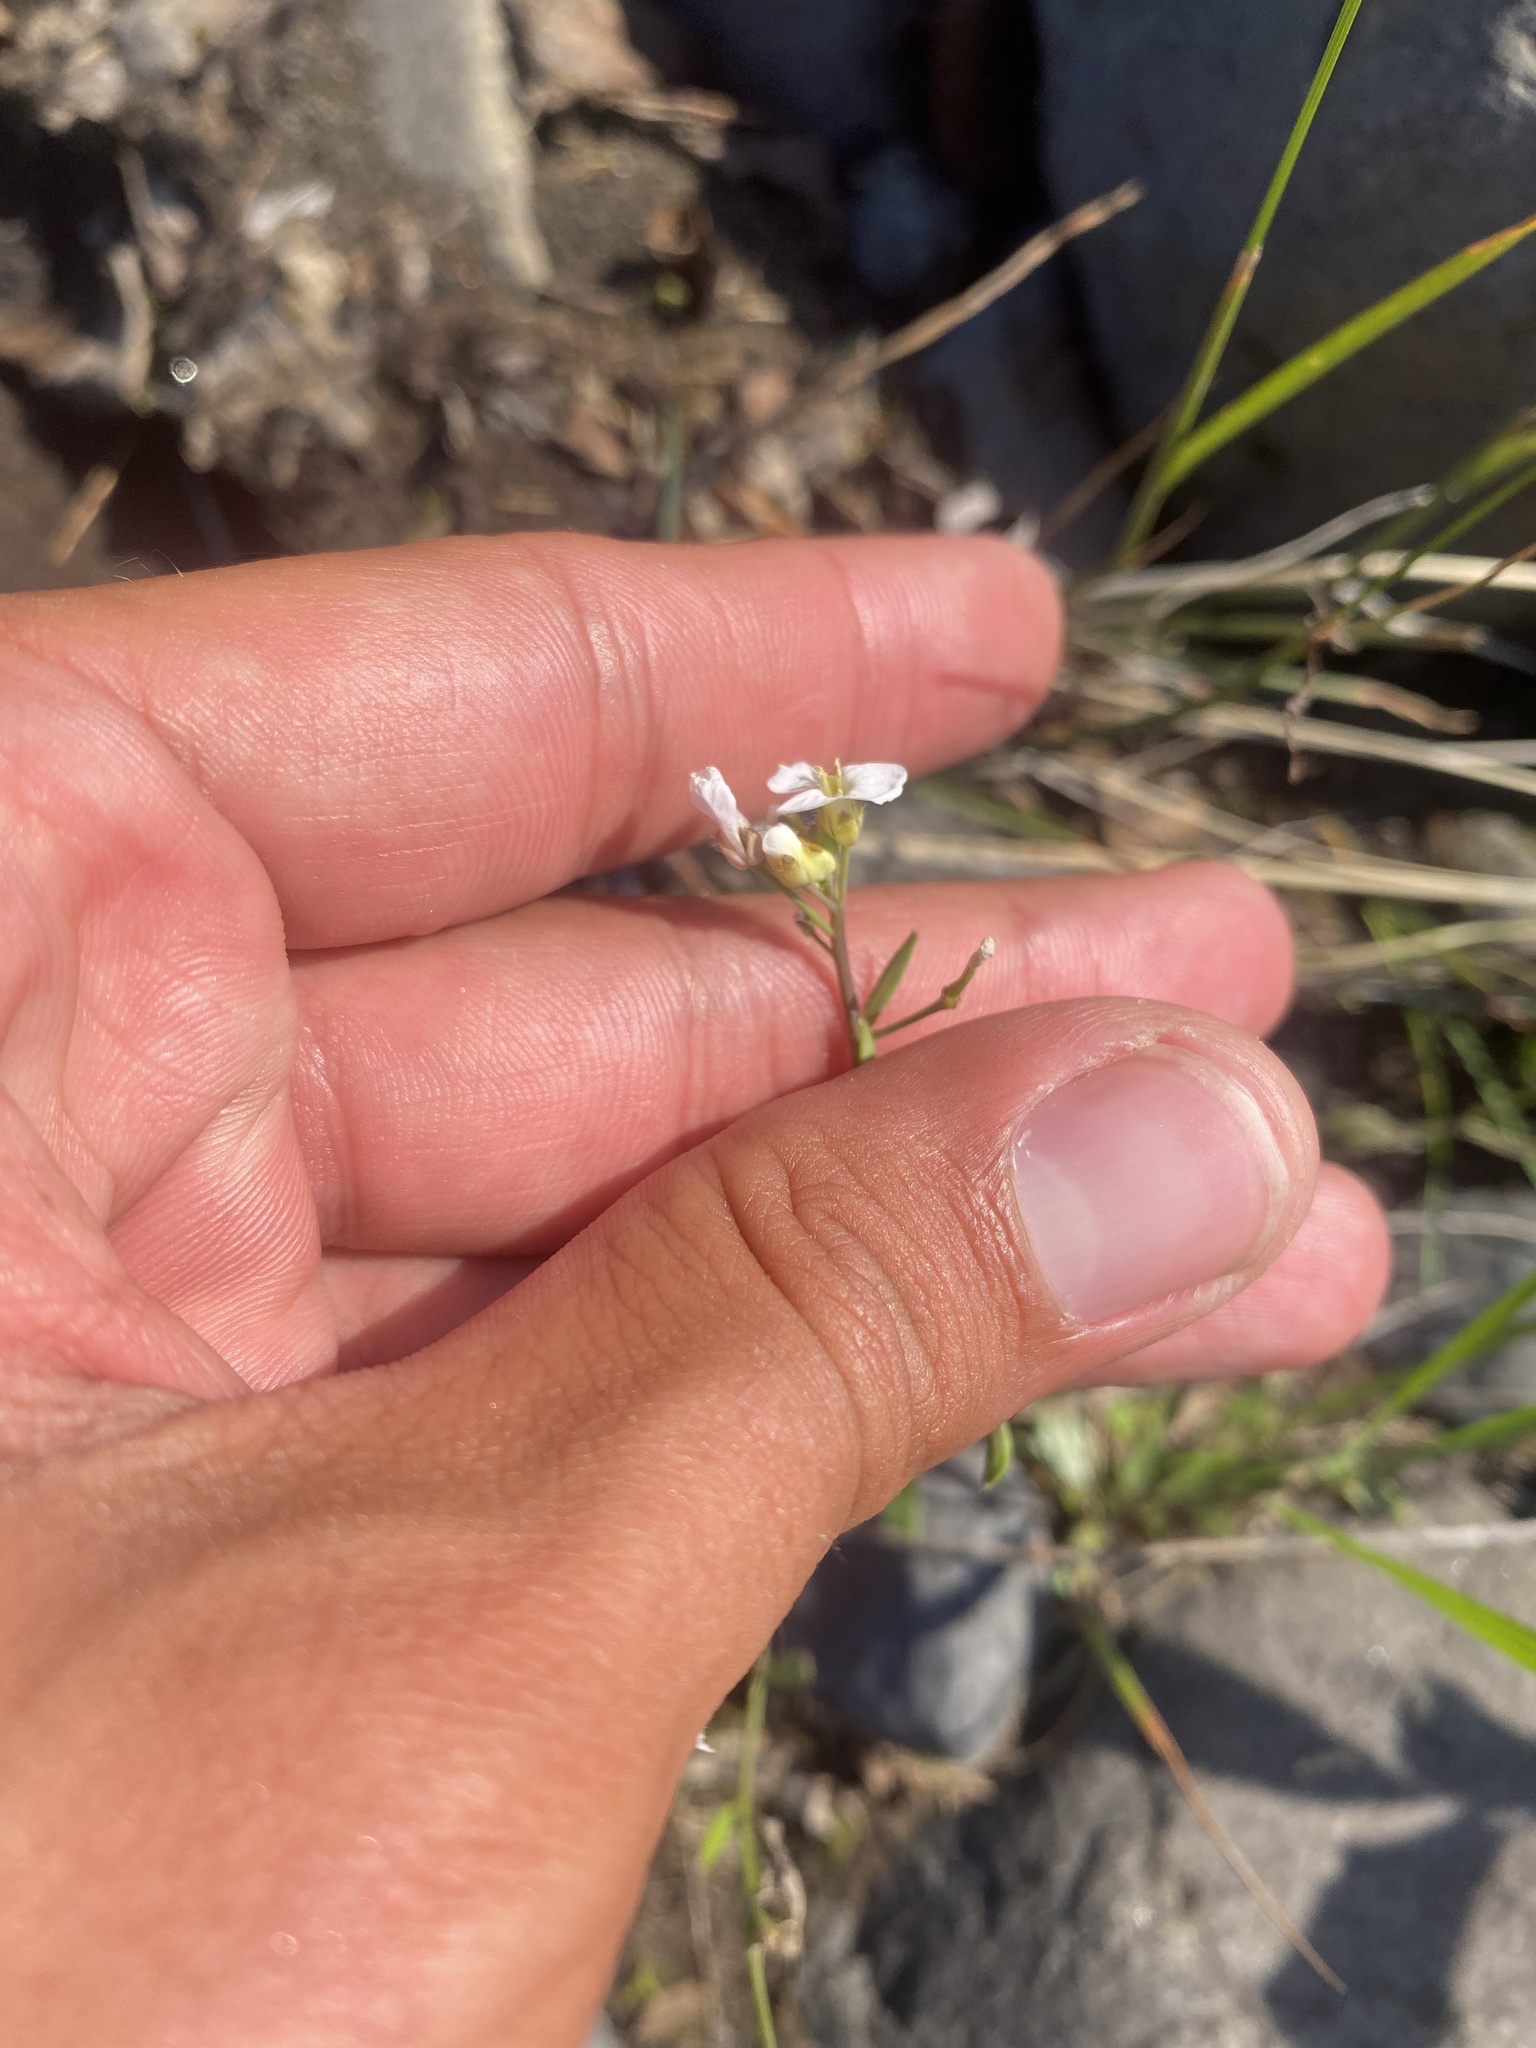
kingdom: Plantae
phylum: Tracheophyta
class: Magnoliopsida
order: Brassicales
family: Brassicaceae
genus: Arabidopsis
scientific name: Arabidopsis lyrata
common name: Lyrate rockcress
